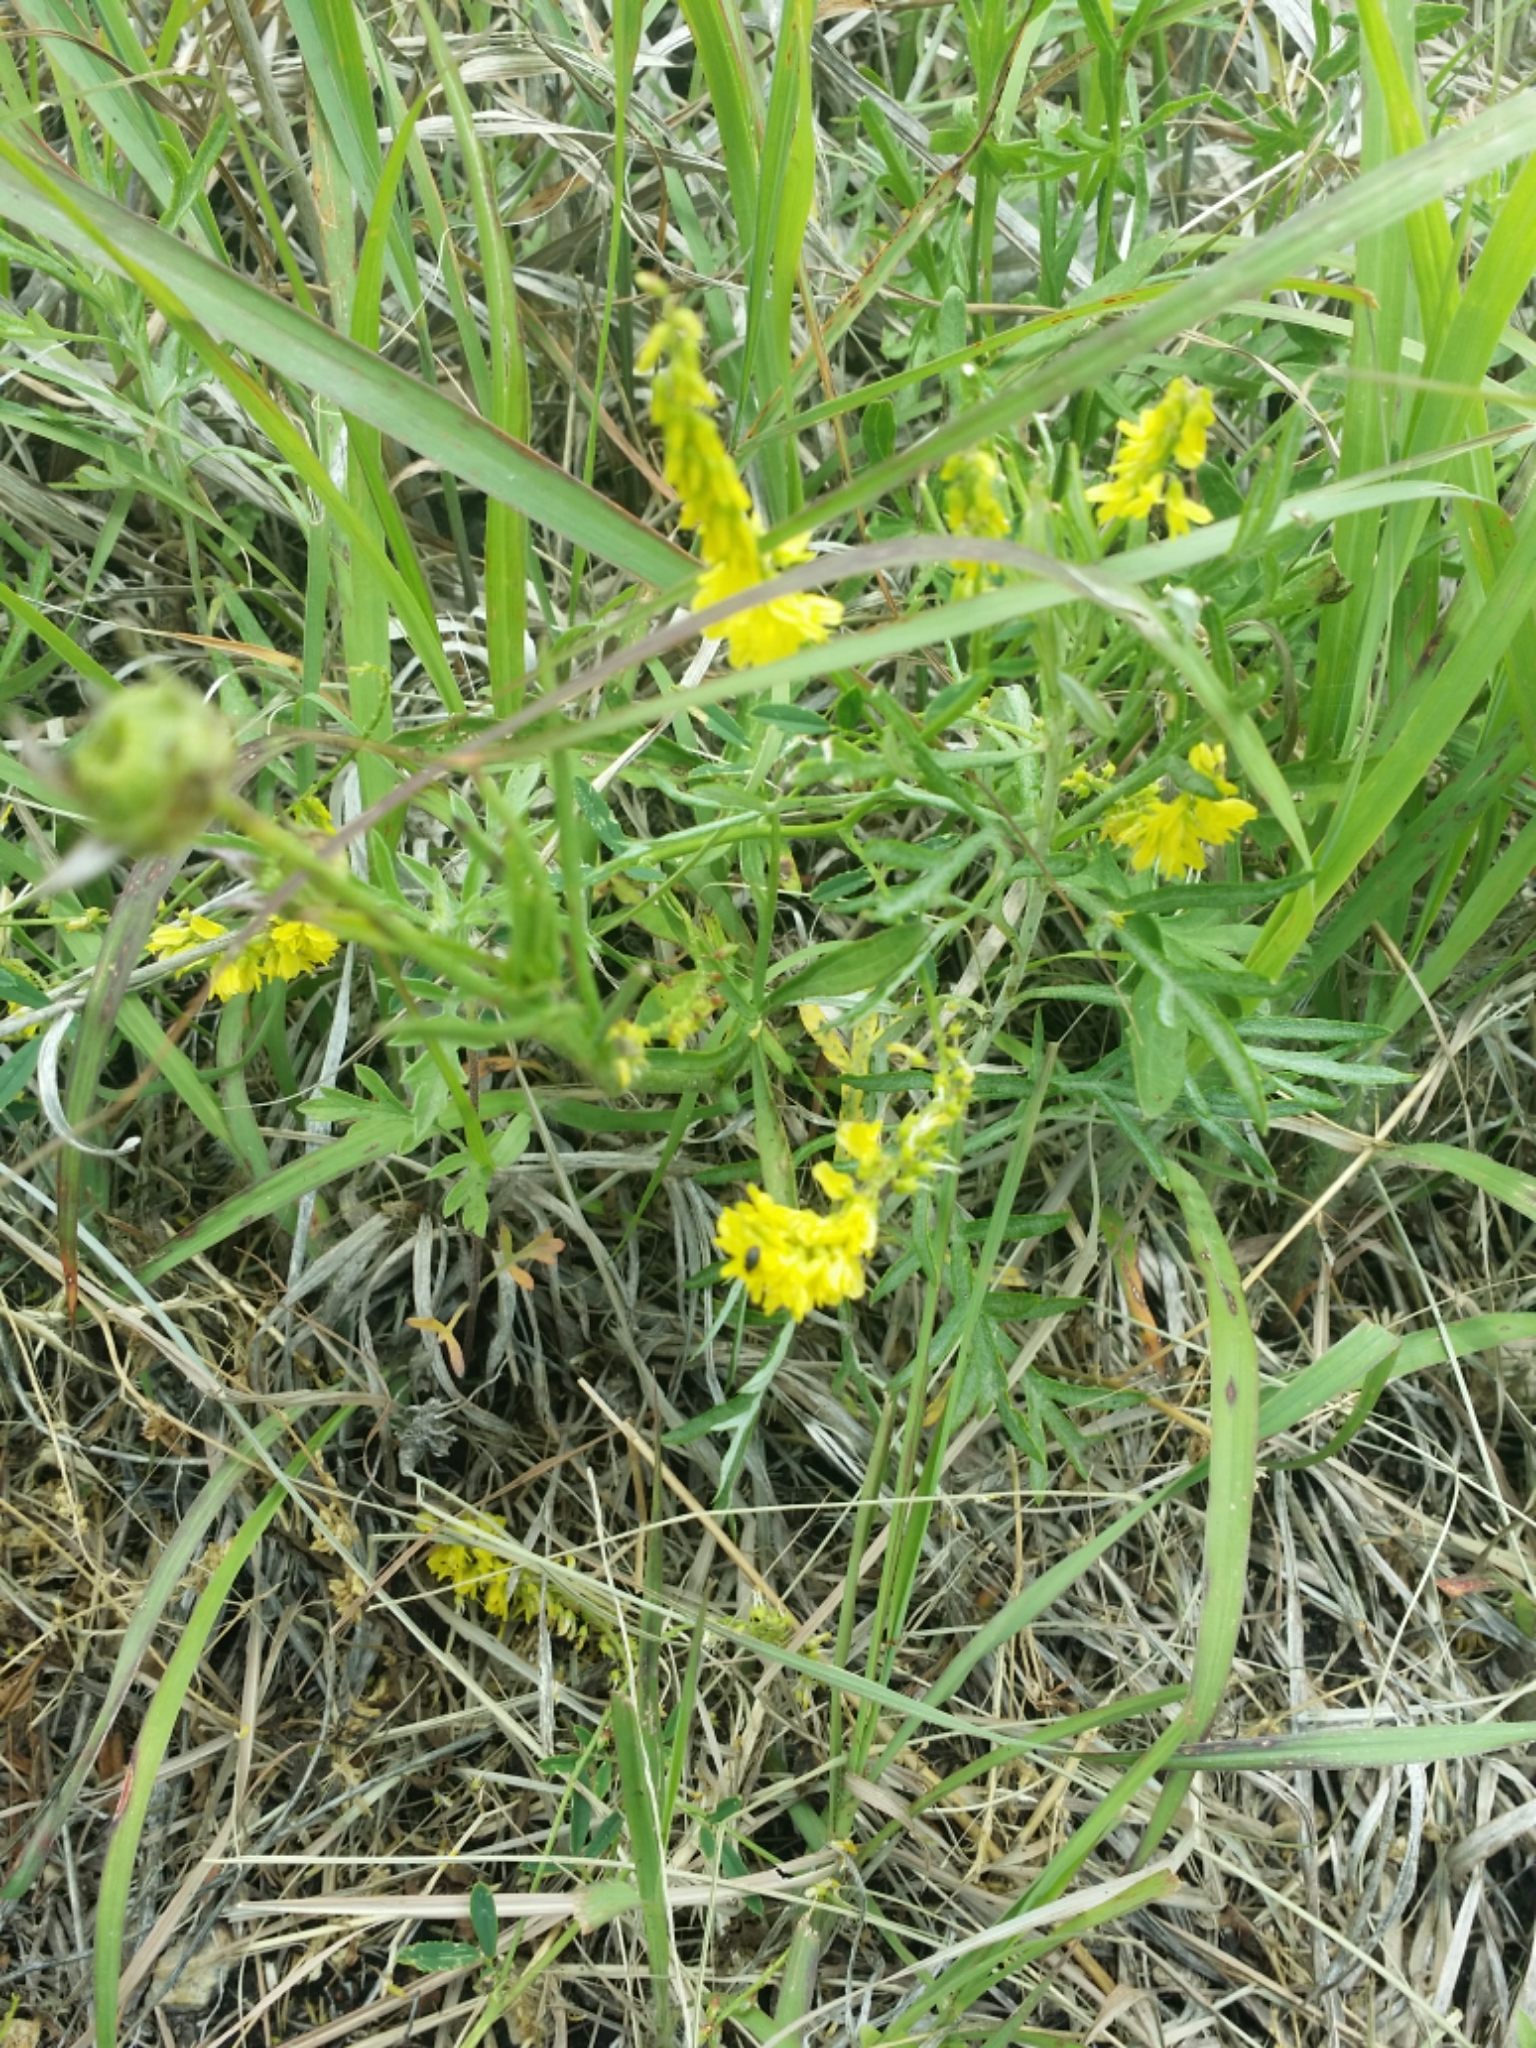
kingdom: Plantae
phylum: Tracheophyta
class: Magnoliopsida
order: Fabales
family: Fabaceae
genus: Melilotus
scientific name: Melilotus officinalis
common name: Sweetclover
